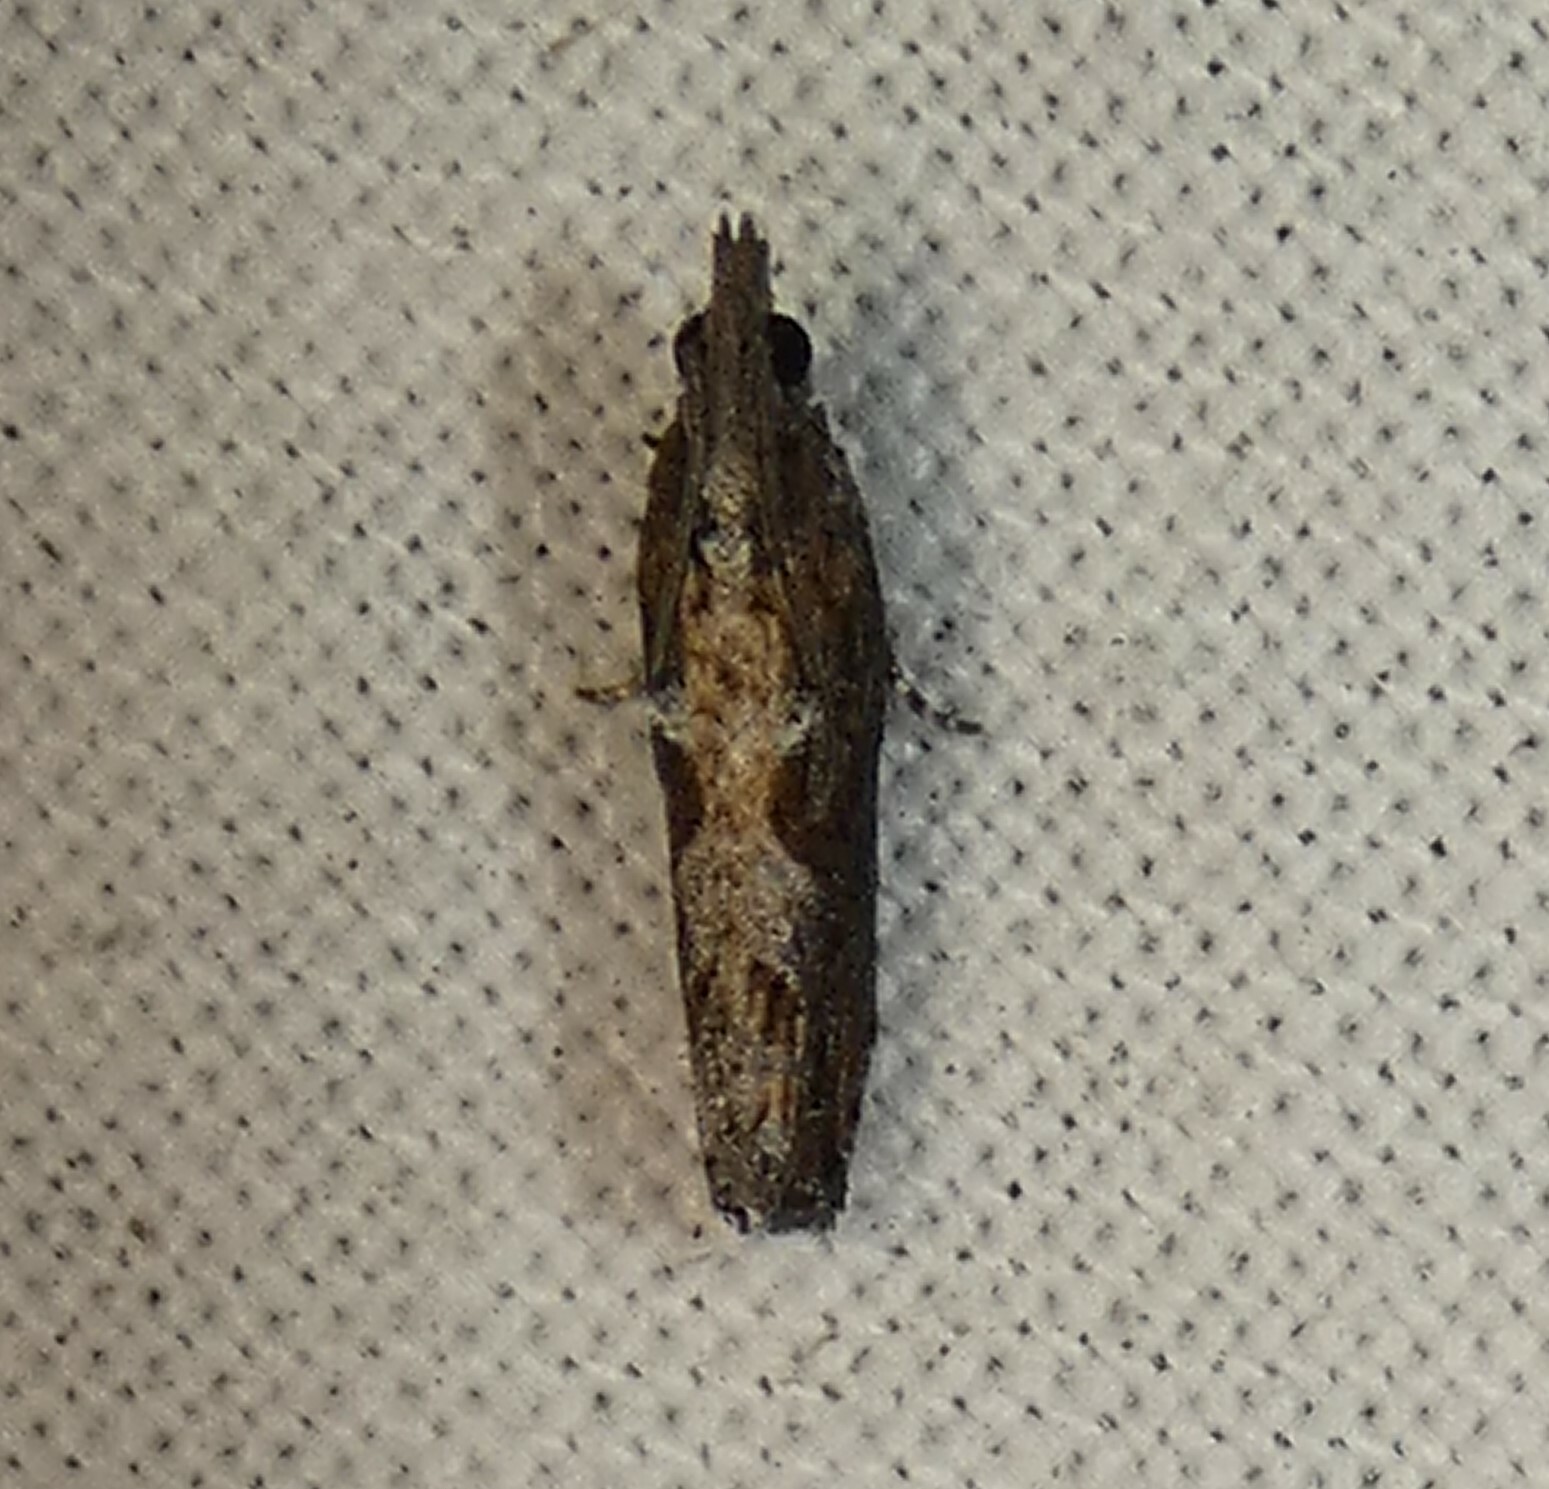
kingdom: Animalia
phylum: Arthropoda
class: Insecta
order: Lepidoptera
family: Tortricidae
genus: Strepsicrates
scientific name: Strepsicrates smithiana
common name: Bayberry leaftier moth
